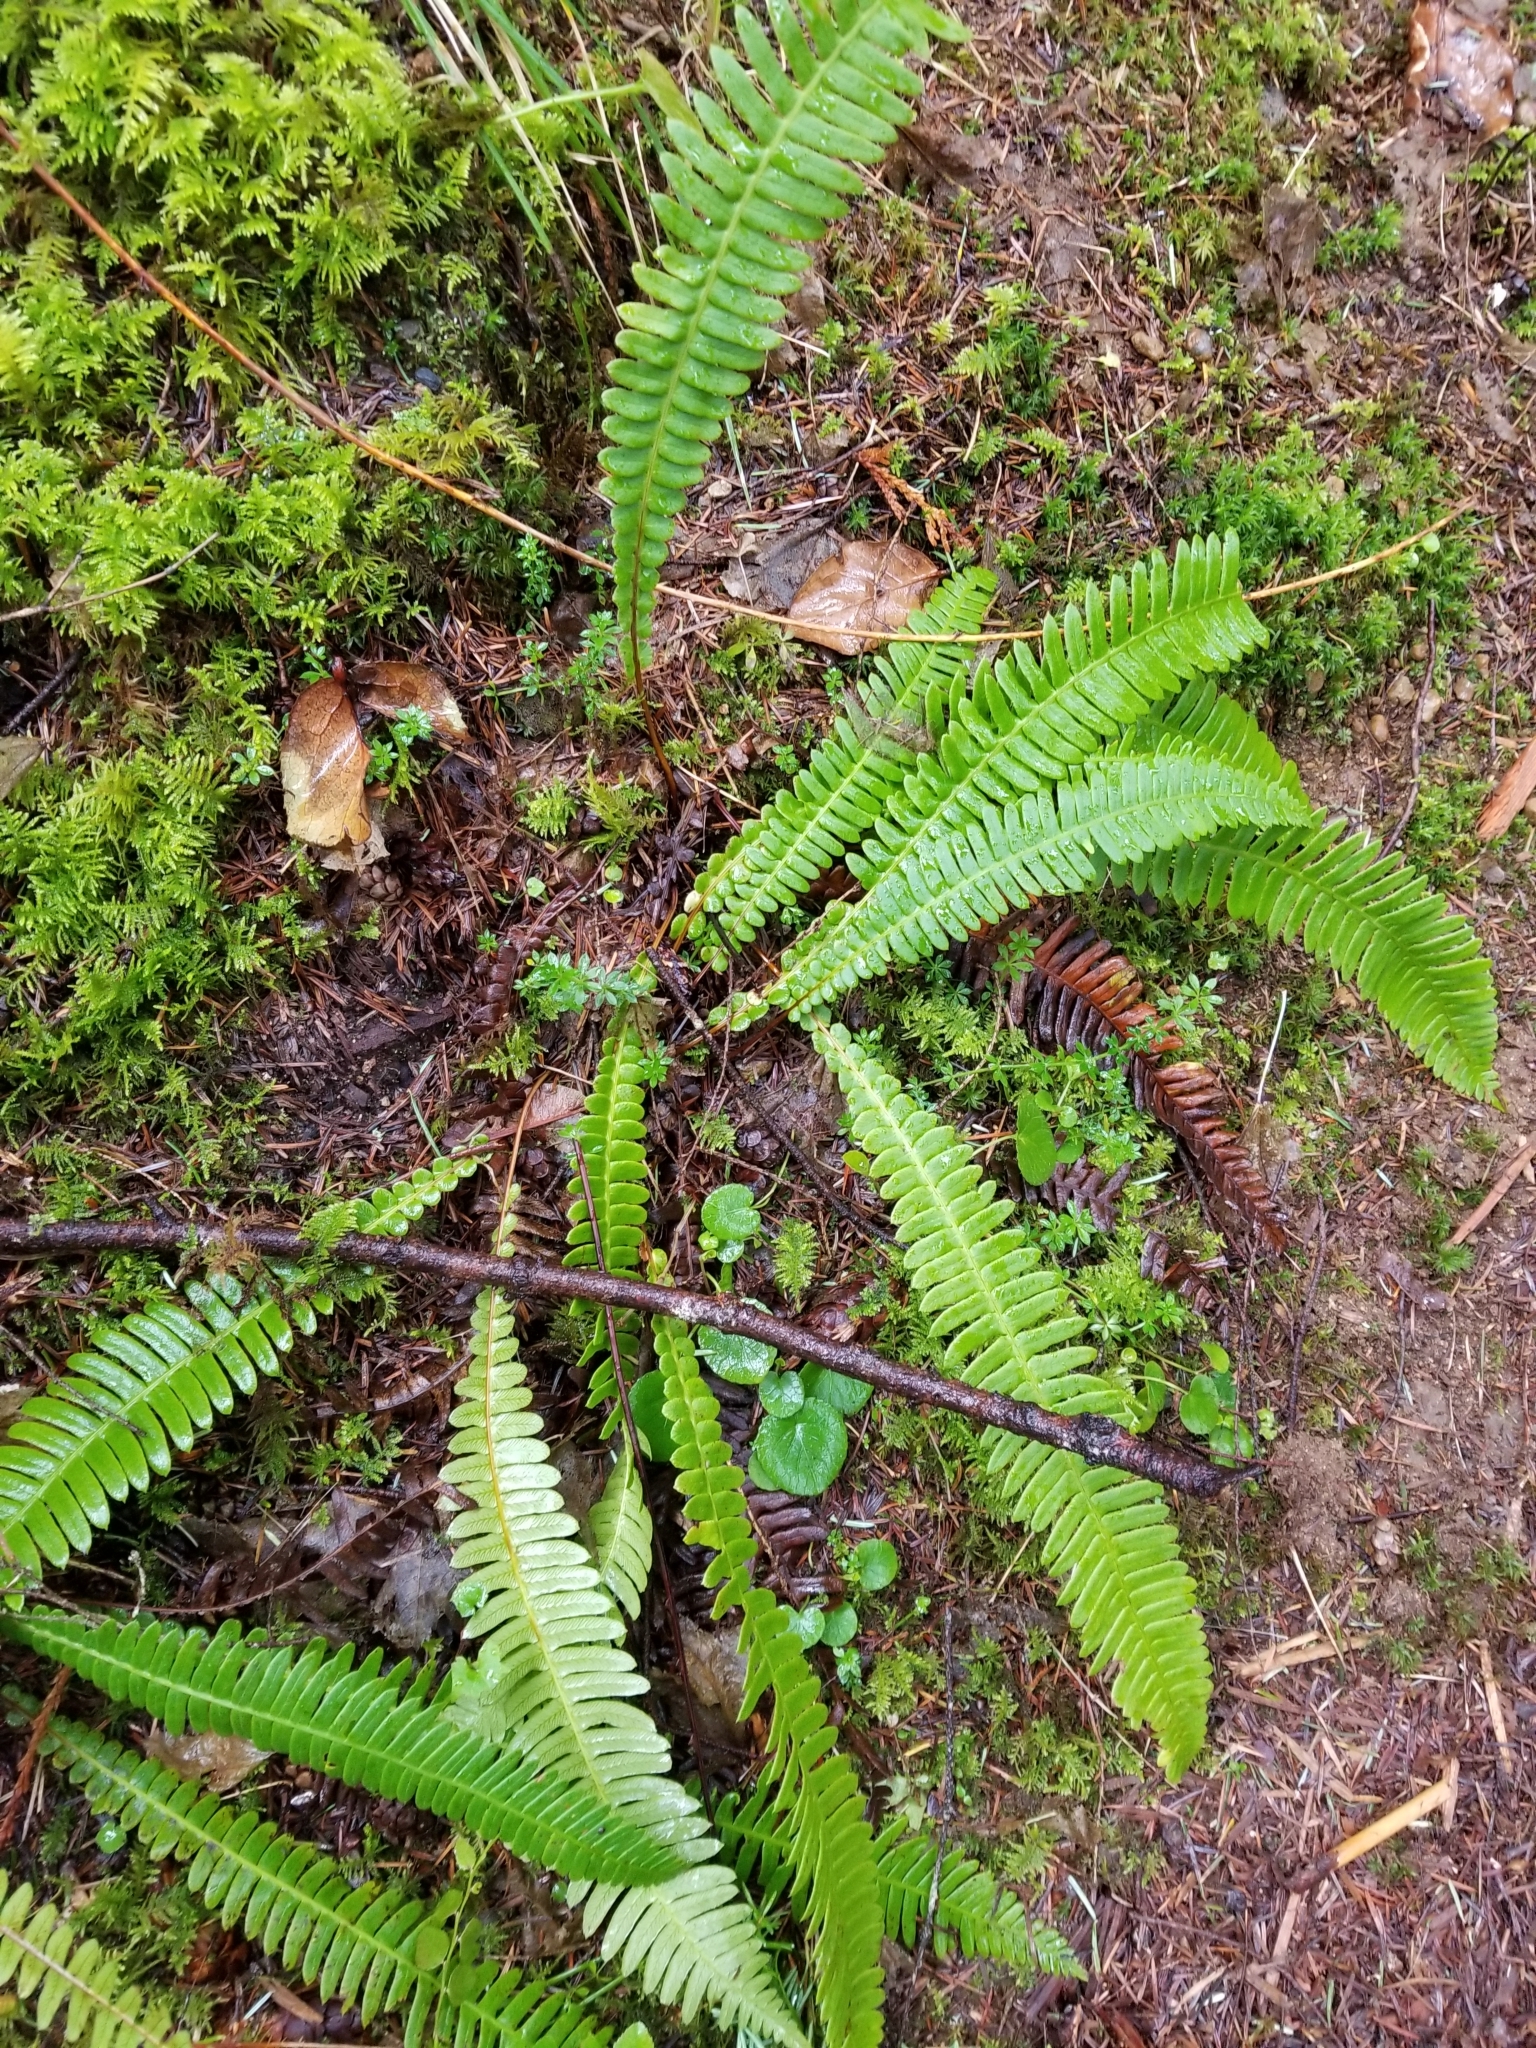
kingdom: Plantae
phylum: Tracheophyta
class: Polypodiopsida
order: Polypodiales
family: Blechnaceae
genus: Struthiopteris
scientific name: Struthiopteris spicant
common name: Deer fern
